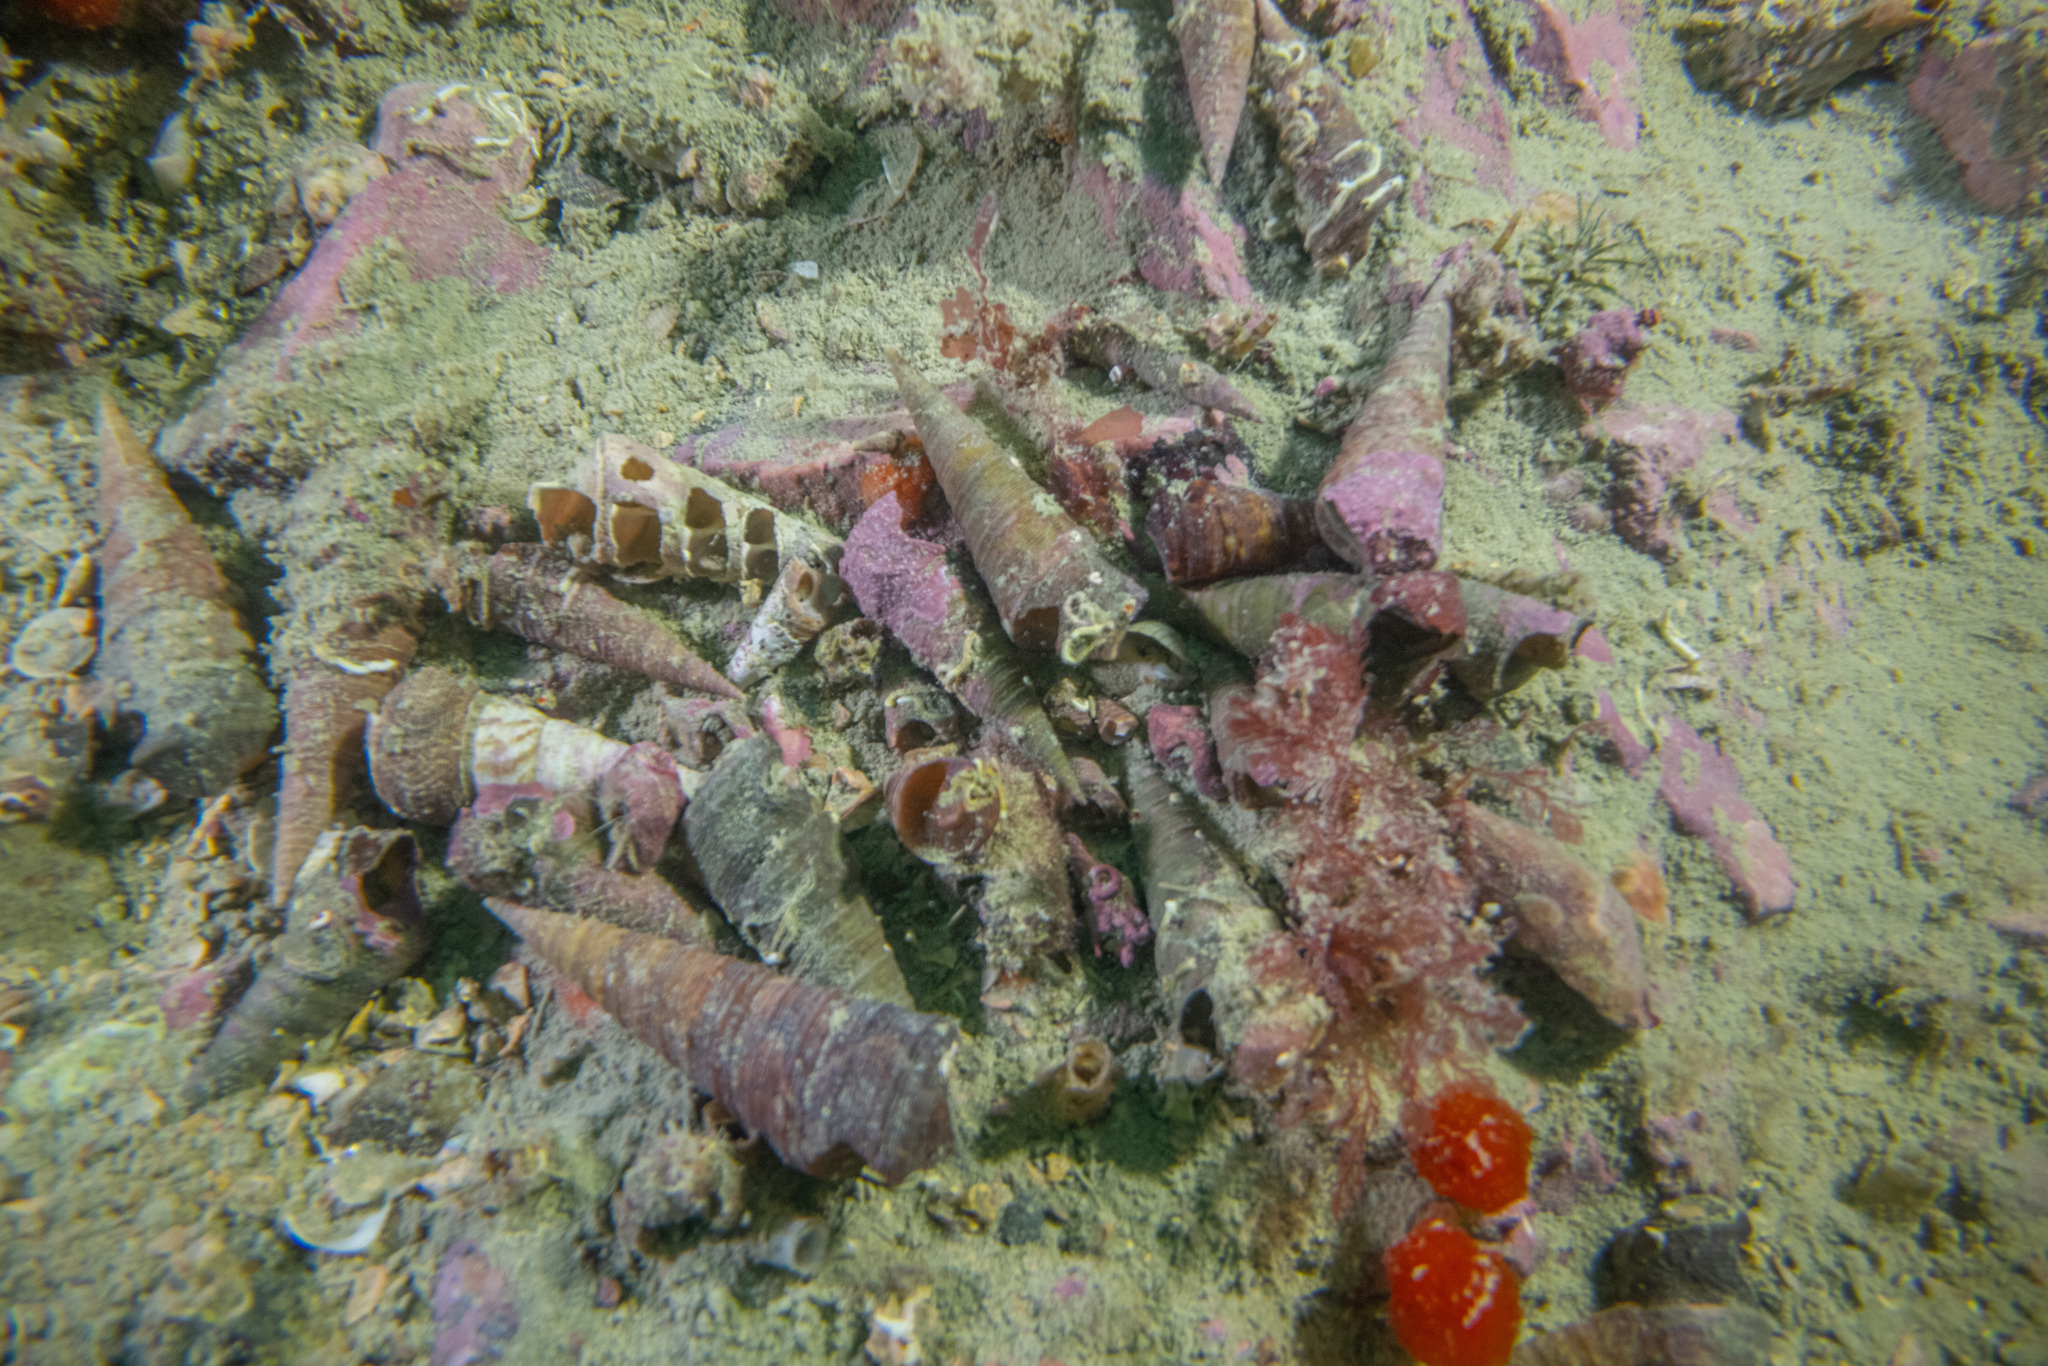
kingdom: Animalia
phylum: Mollusca
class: Gastropoda
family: Turritellidae
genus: Maoricolpus
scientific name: Maoricolpus roseus
